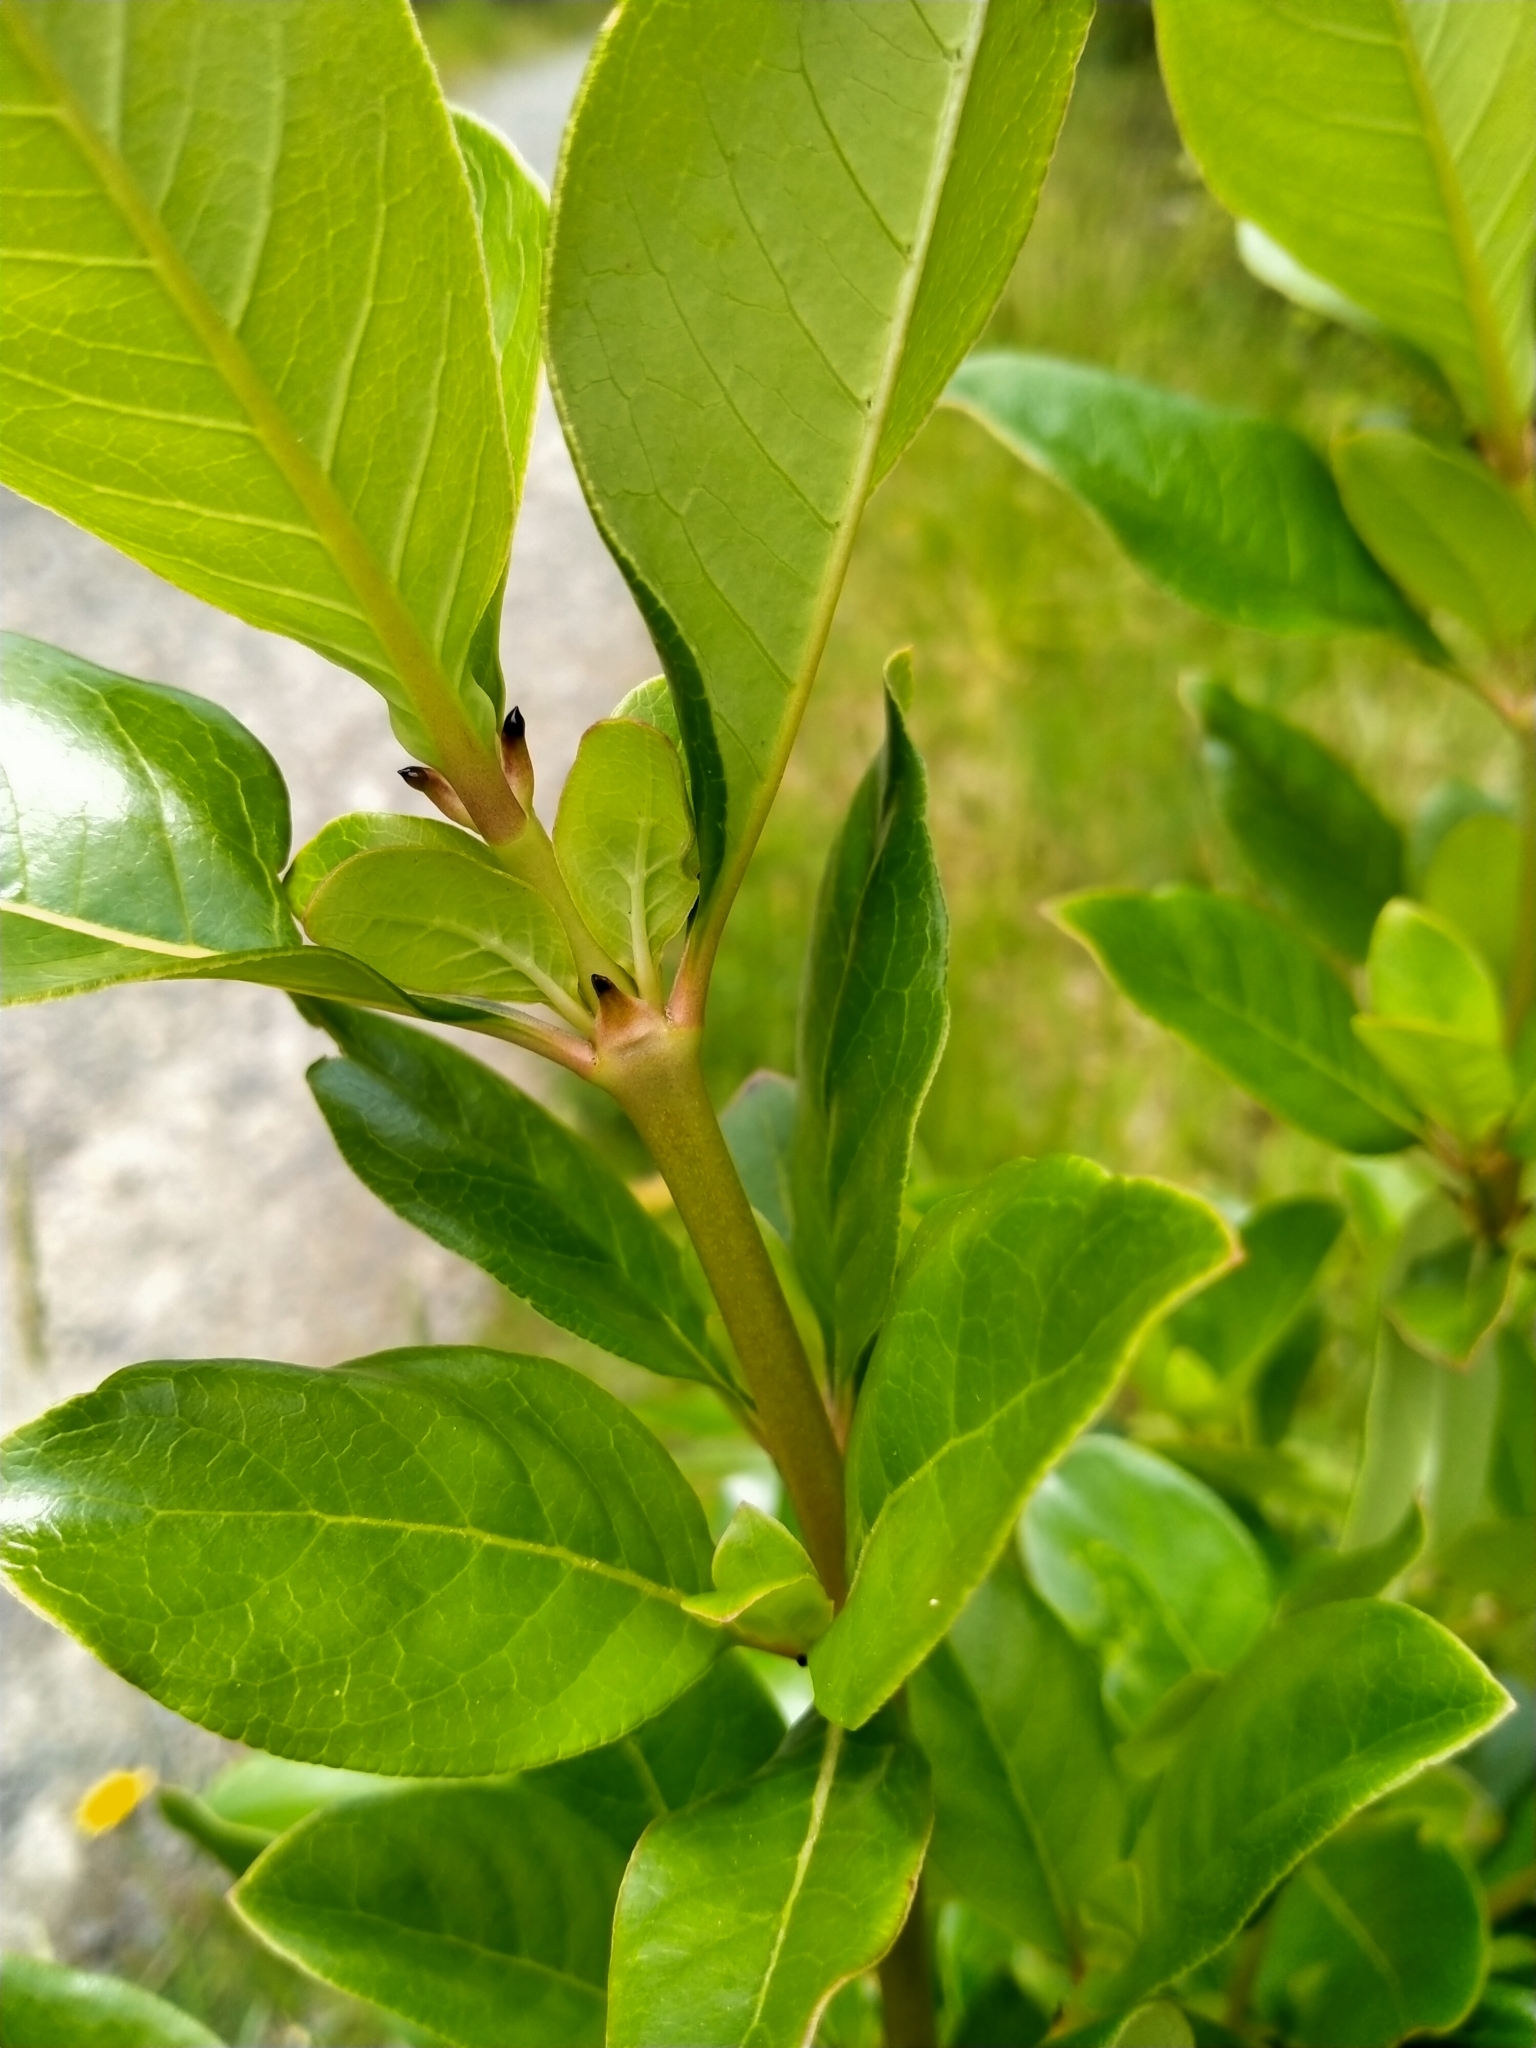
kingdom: Plantae
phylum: Tracheophyta
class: Magnoliopsida
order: Gentianales
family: Rubiaceae
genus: Coprosma
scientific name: Coprosma robusta
